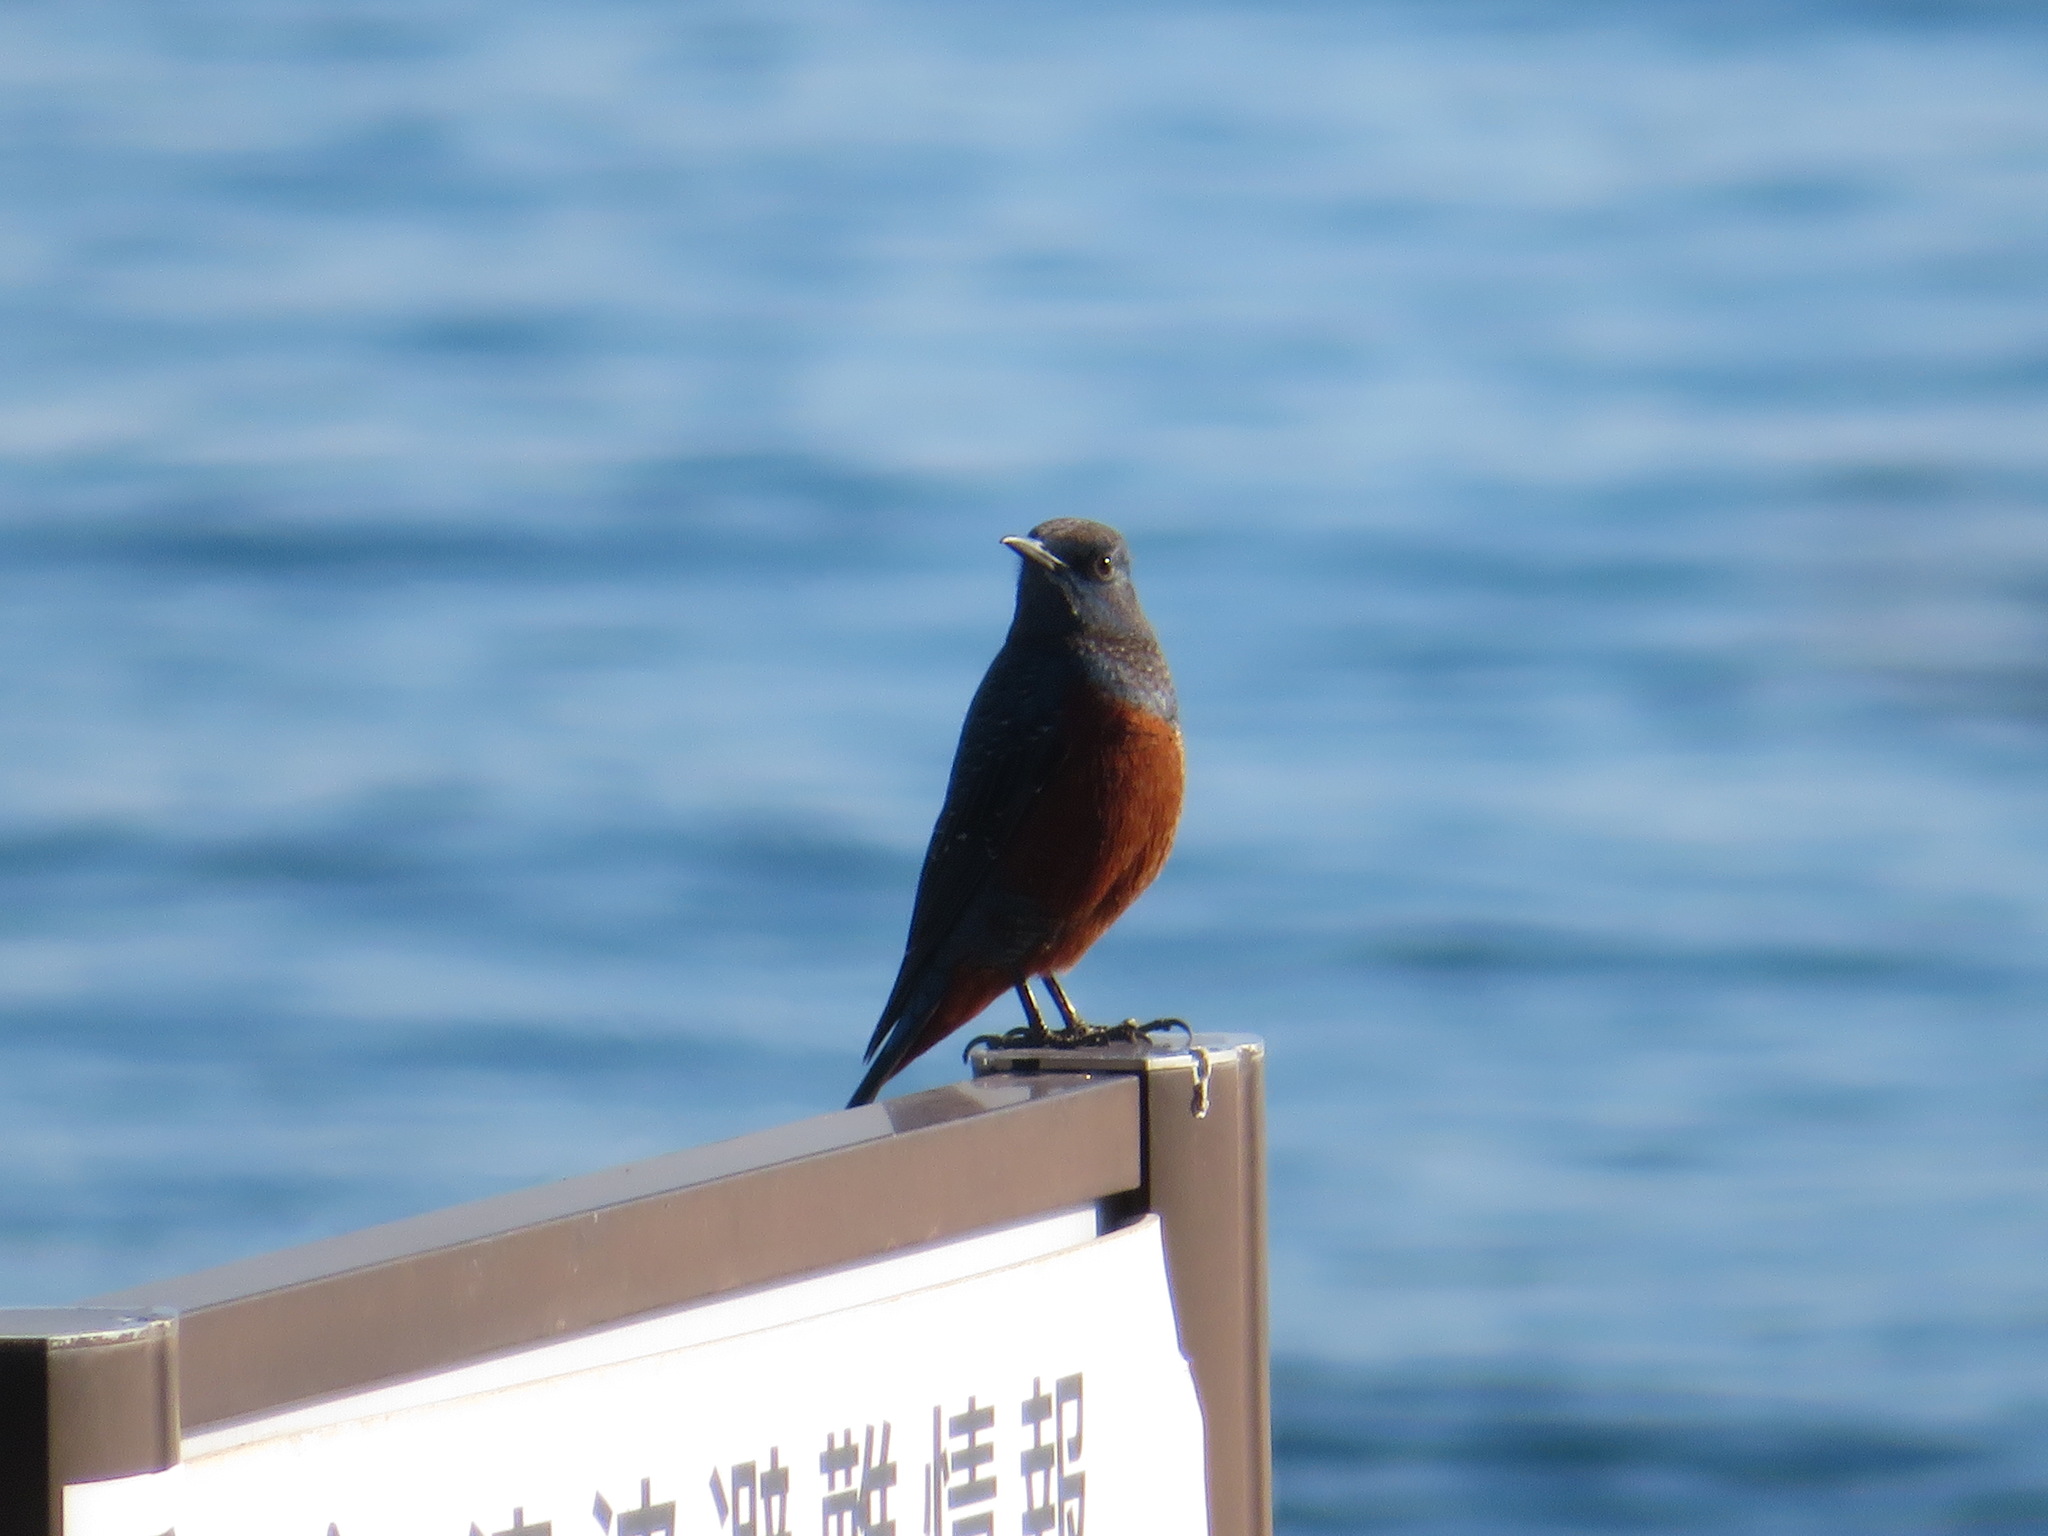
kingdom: Animalia
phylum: Chordata
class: Aves
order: Passeriformes
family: Muscicapidae
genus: Monticola
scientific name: Monticola solitarius
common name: Blue rock thrush
